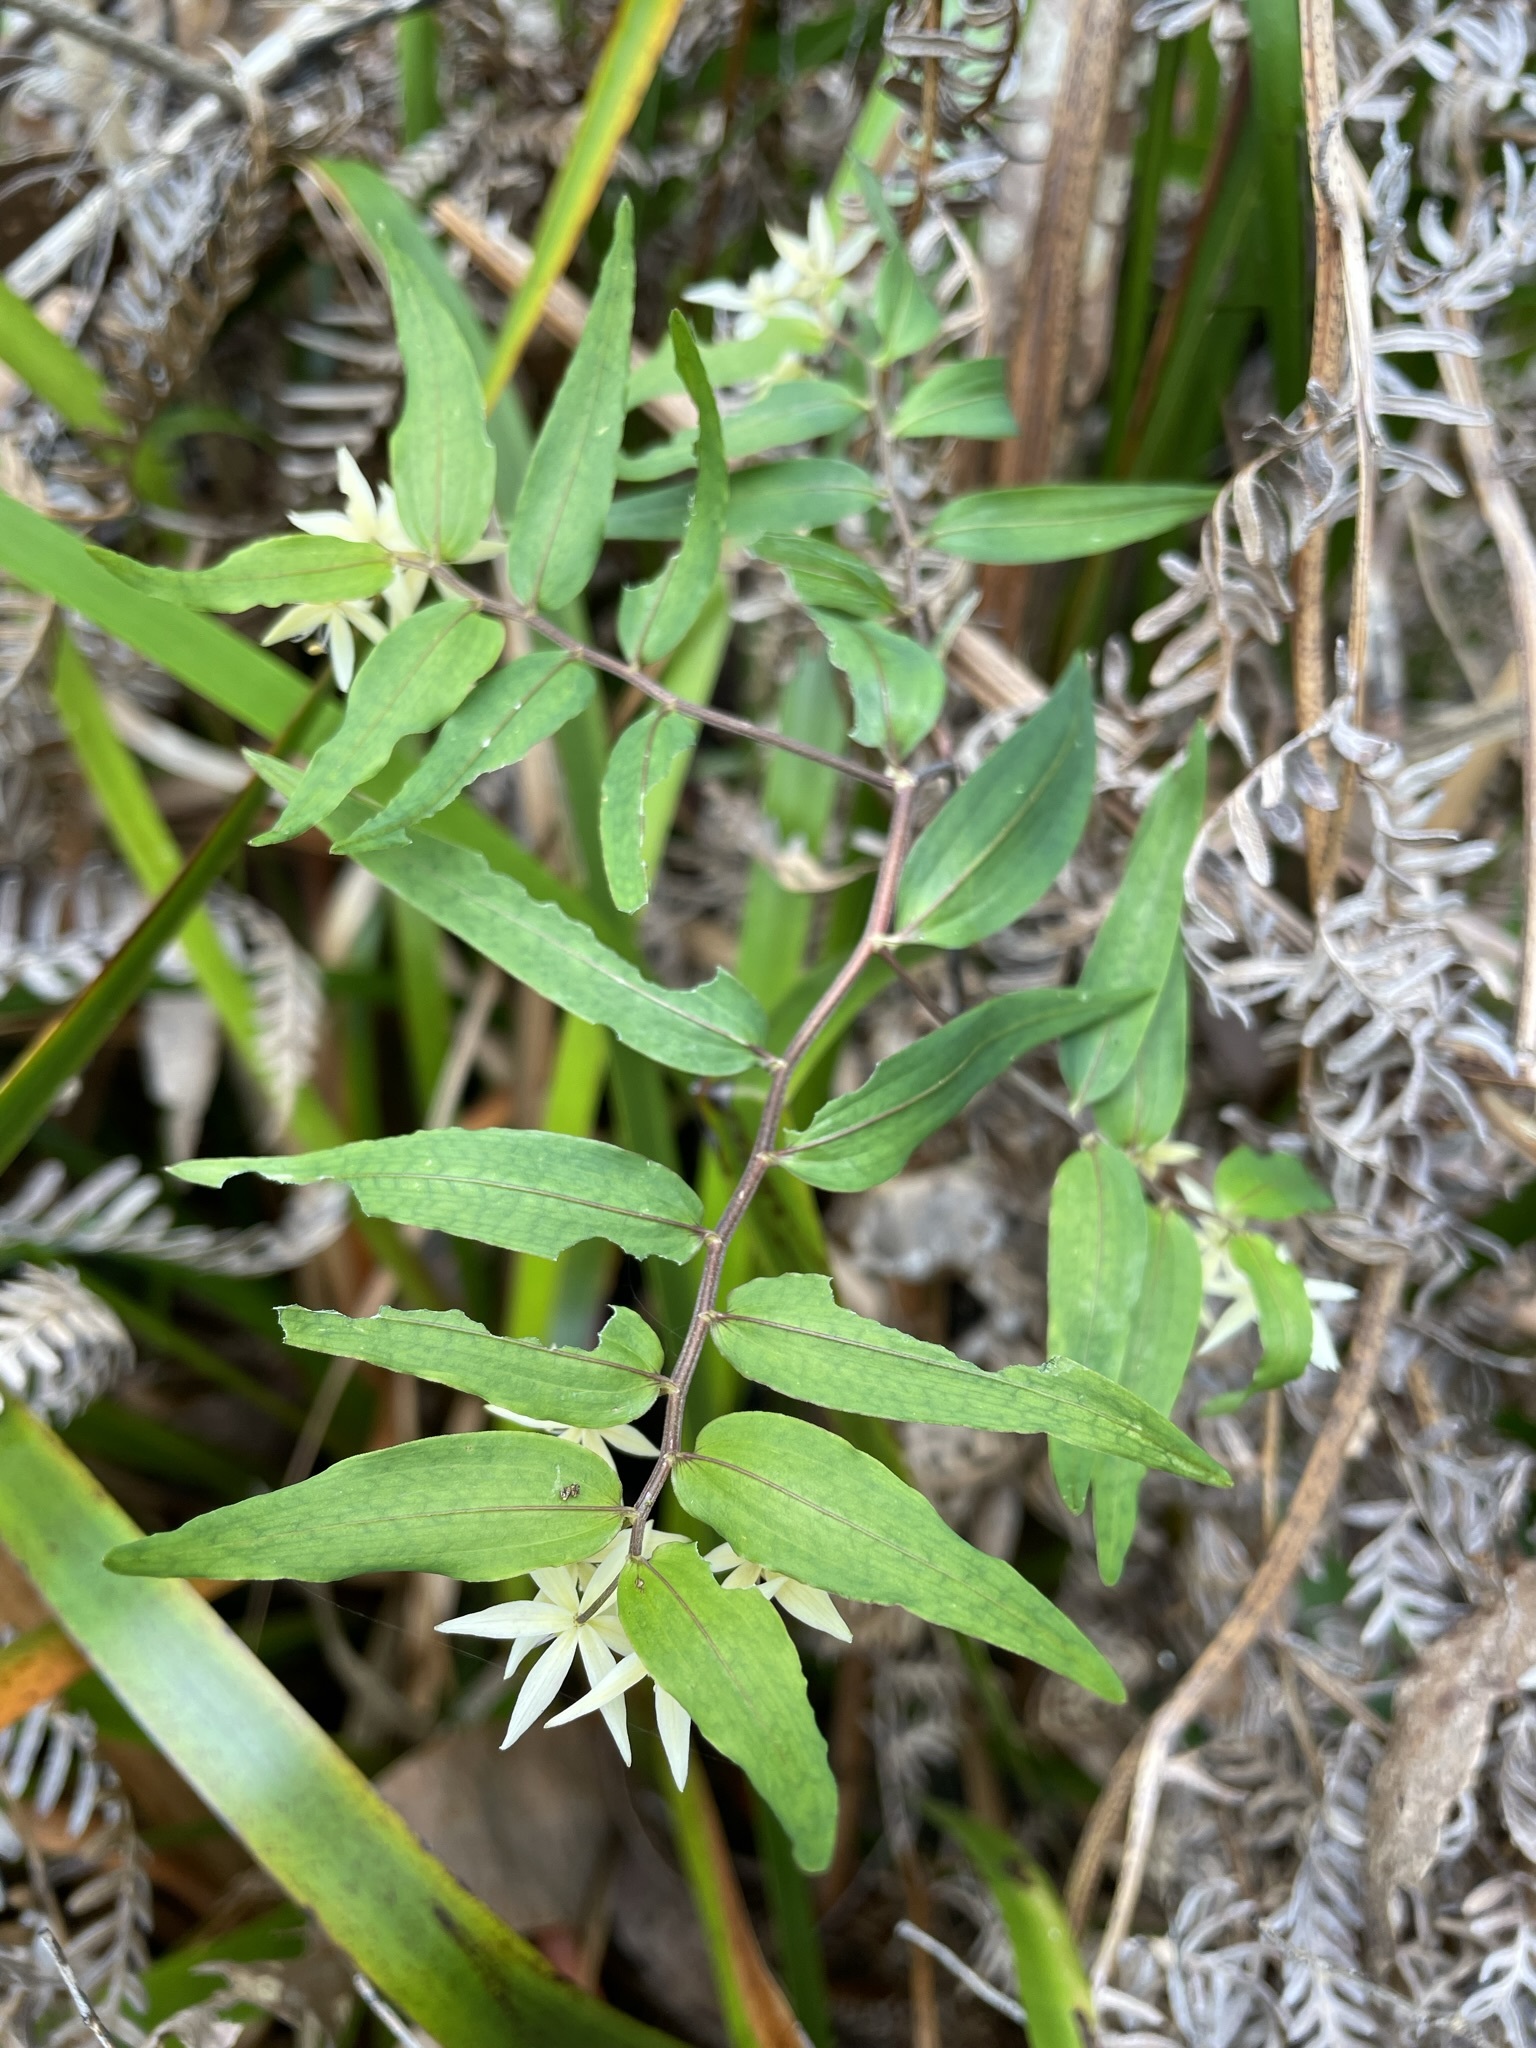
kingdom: Plantae
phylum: Tracheophyta
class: Liliopsida
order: Liliales
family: Alstroemeriaceae
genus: Drymophila
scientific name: Drymophila cyanocarpa
